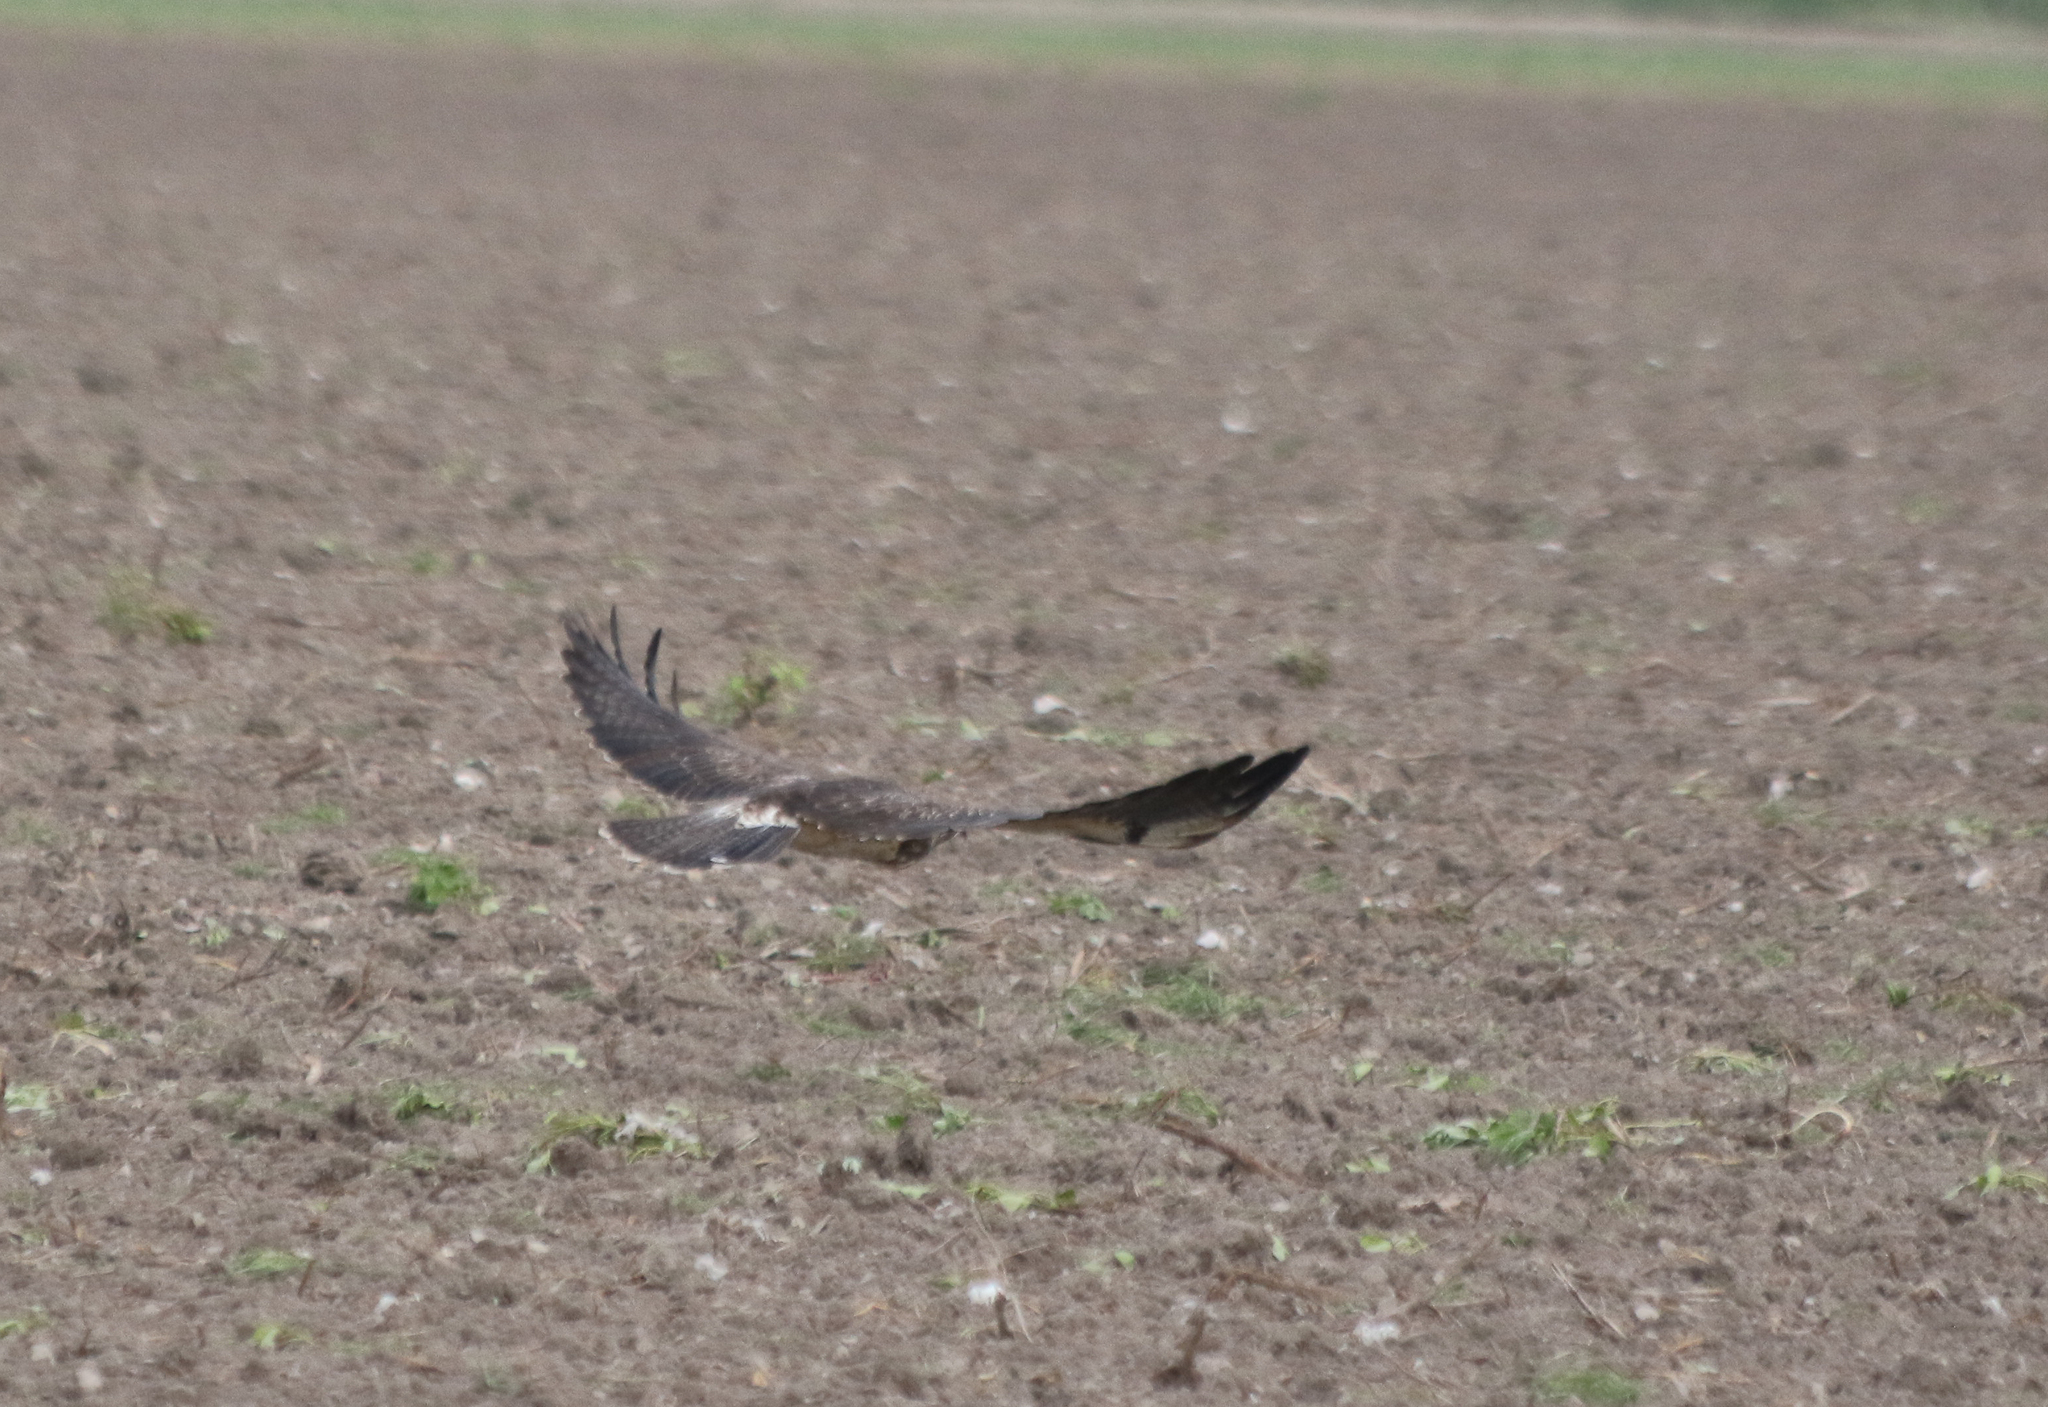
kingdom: Animalia
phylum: Chordata
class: Aves
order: Accipitriformes
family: Accipitridae
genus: Buteo
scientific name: Buteo swainsoni
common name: Swainson's hawk
